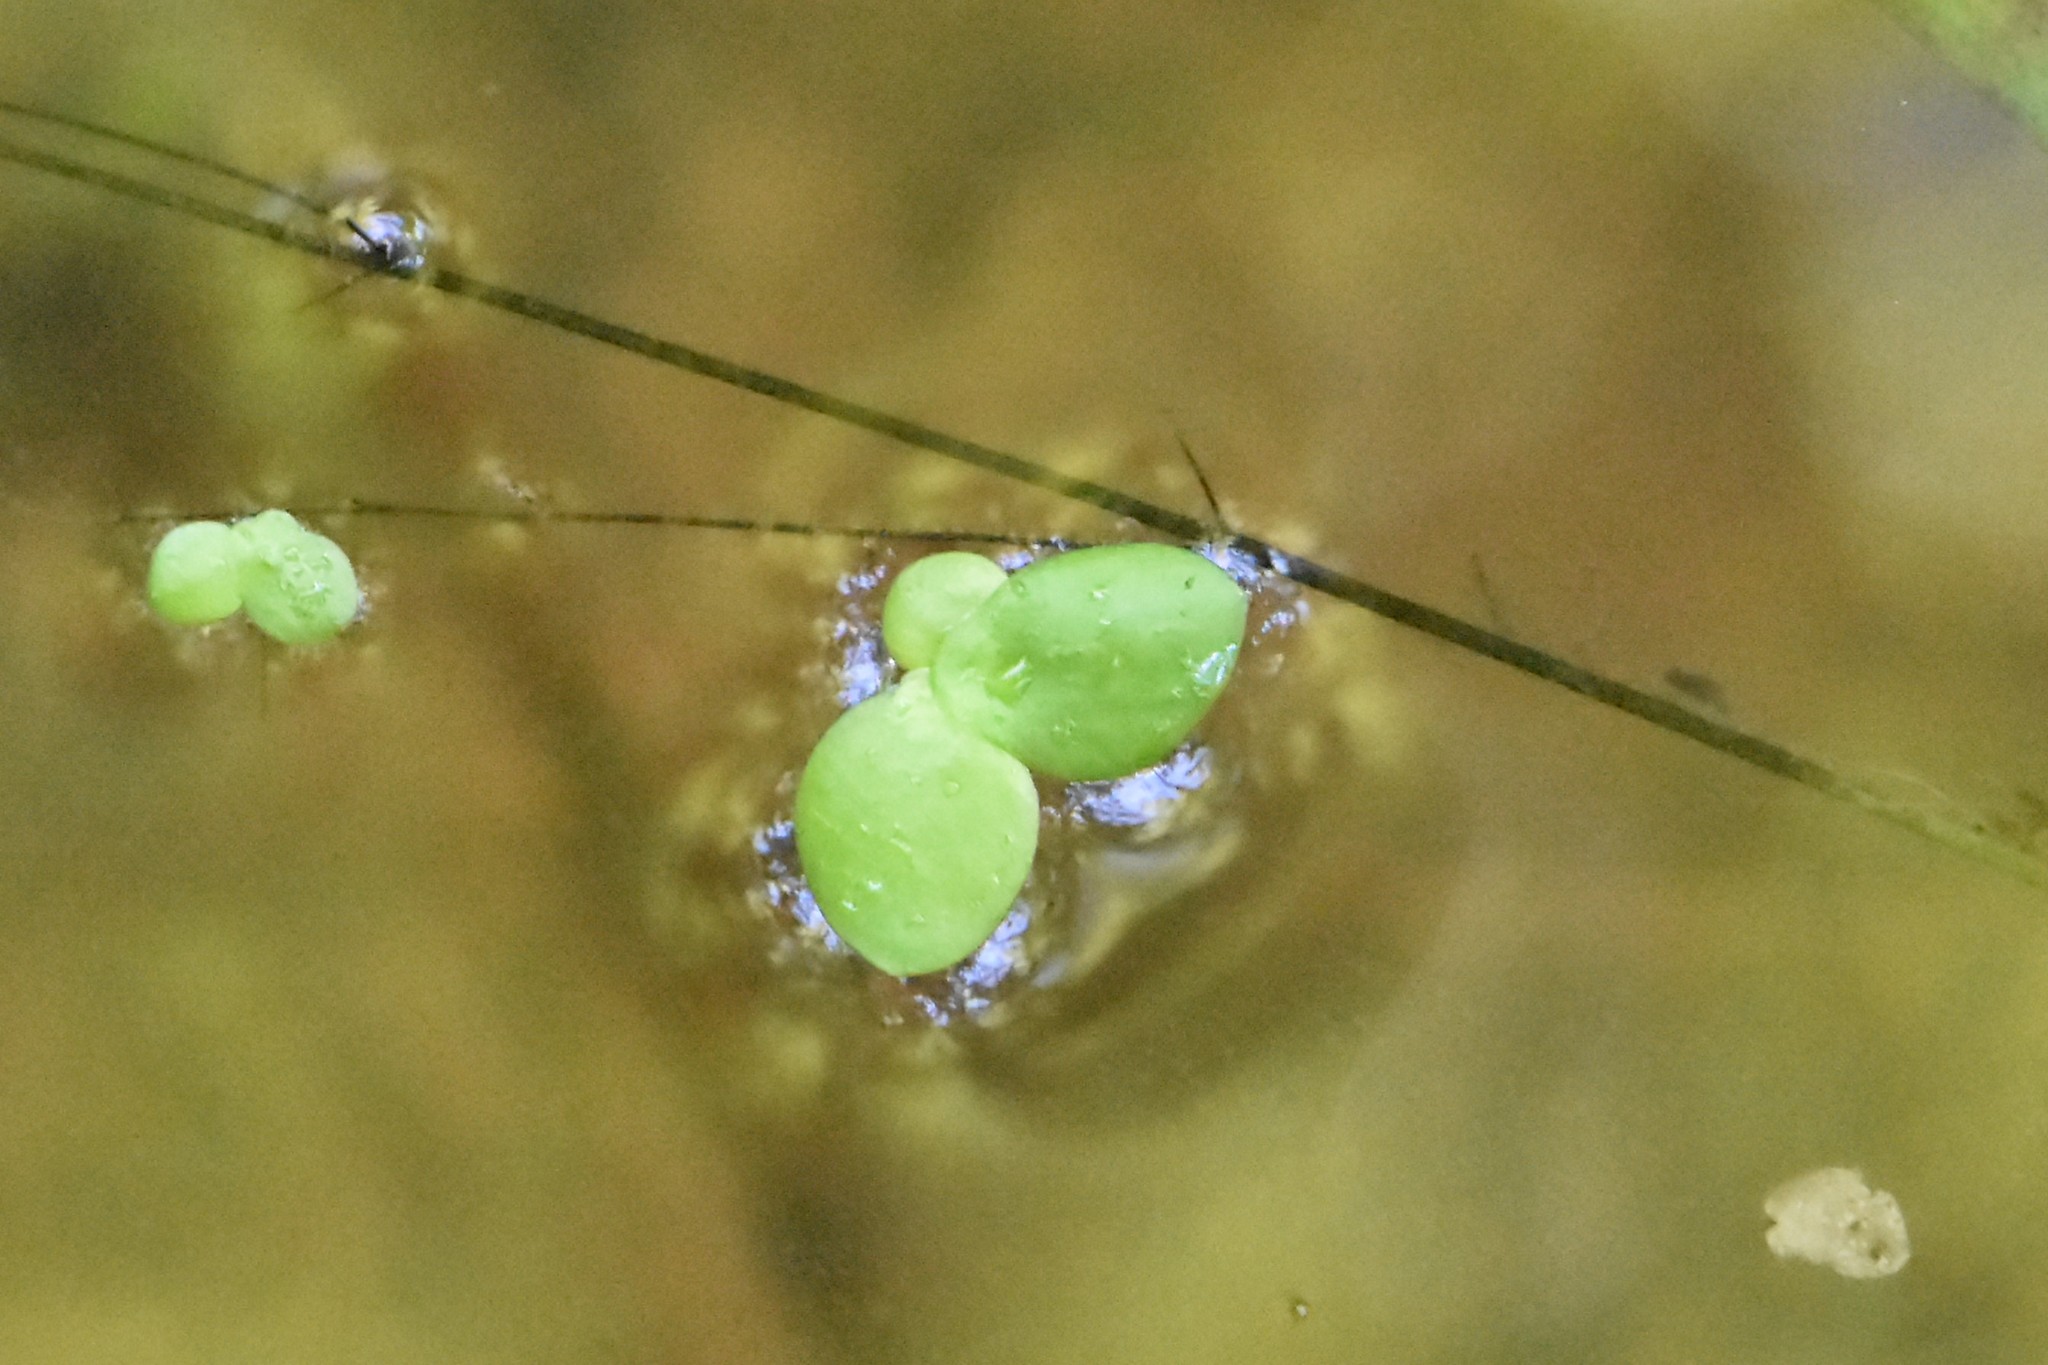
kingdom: Plantae
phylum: Tracheophyta
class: Liliopsida
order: Alismatales
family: Araceae
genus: Spirodela
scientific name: Spirodela polyrhiza
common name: Great duckweed
